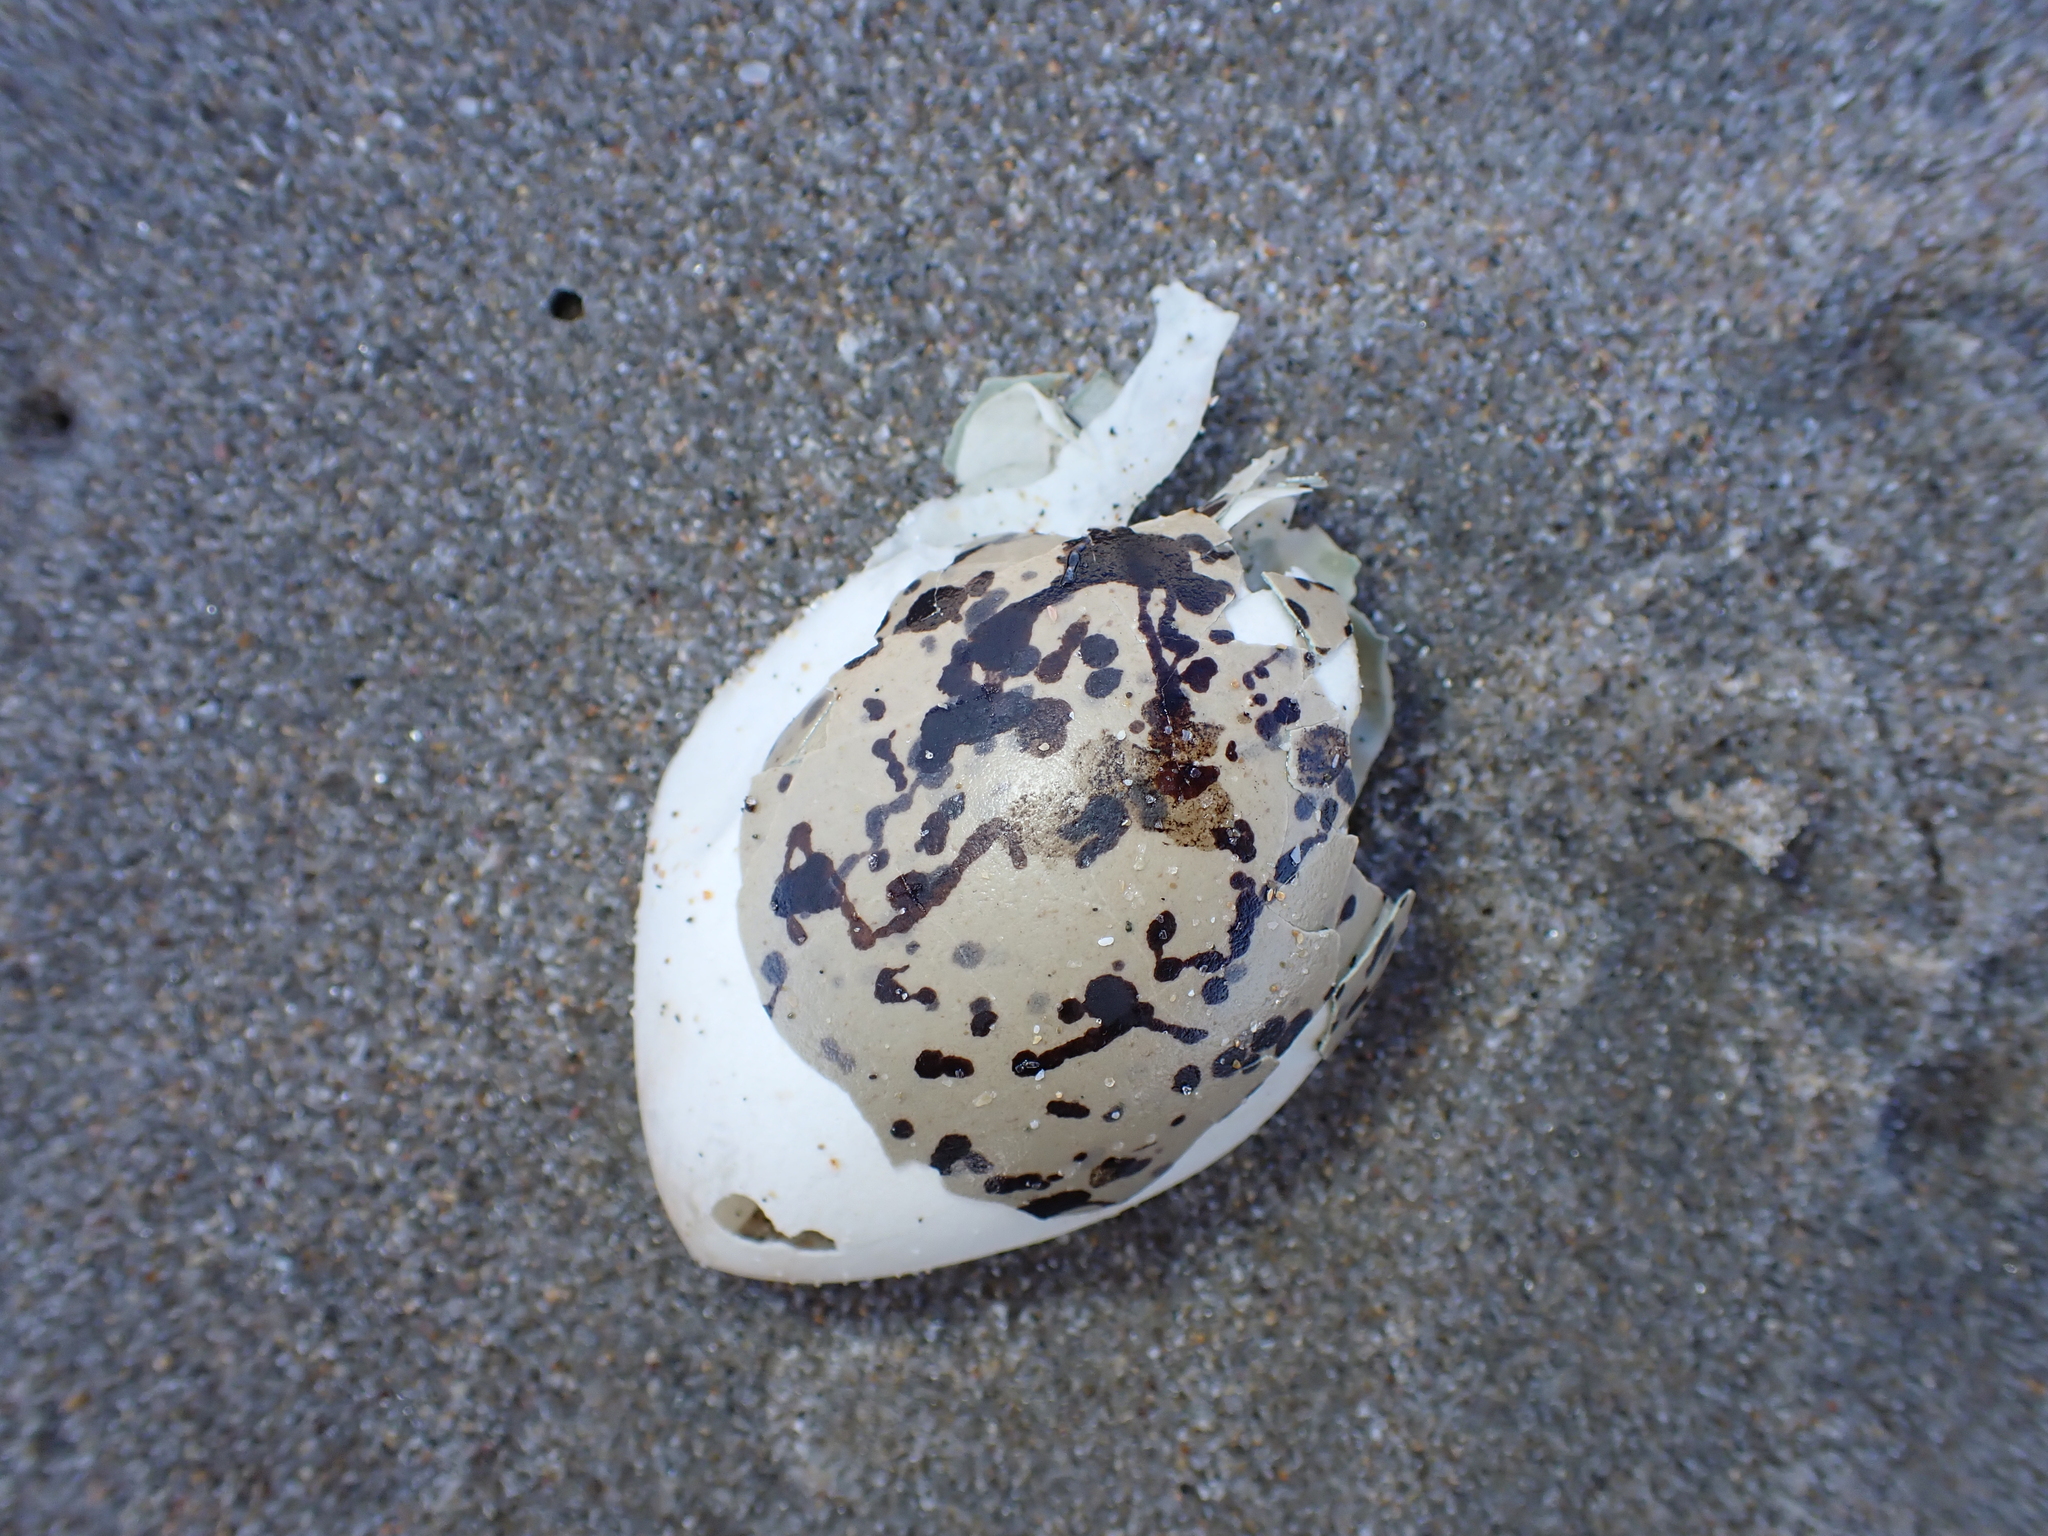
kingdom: Animalia
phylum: Chordata
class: Aves
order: Charadriiformes
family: Haematopodidae
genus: Haematopus
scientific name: Haematopus unicolor
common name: Variable oystercatcher
